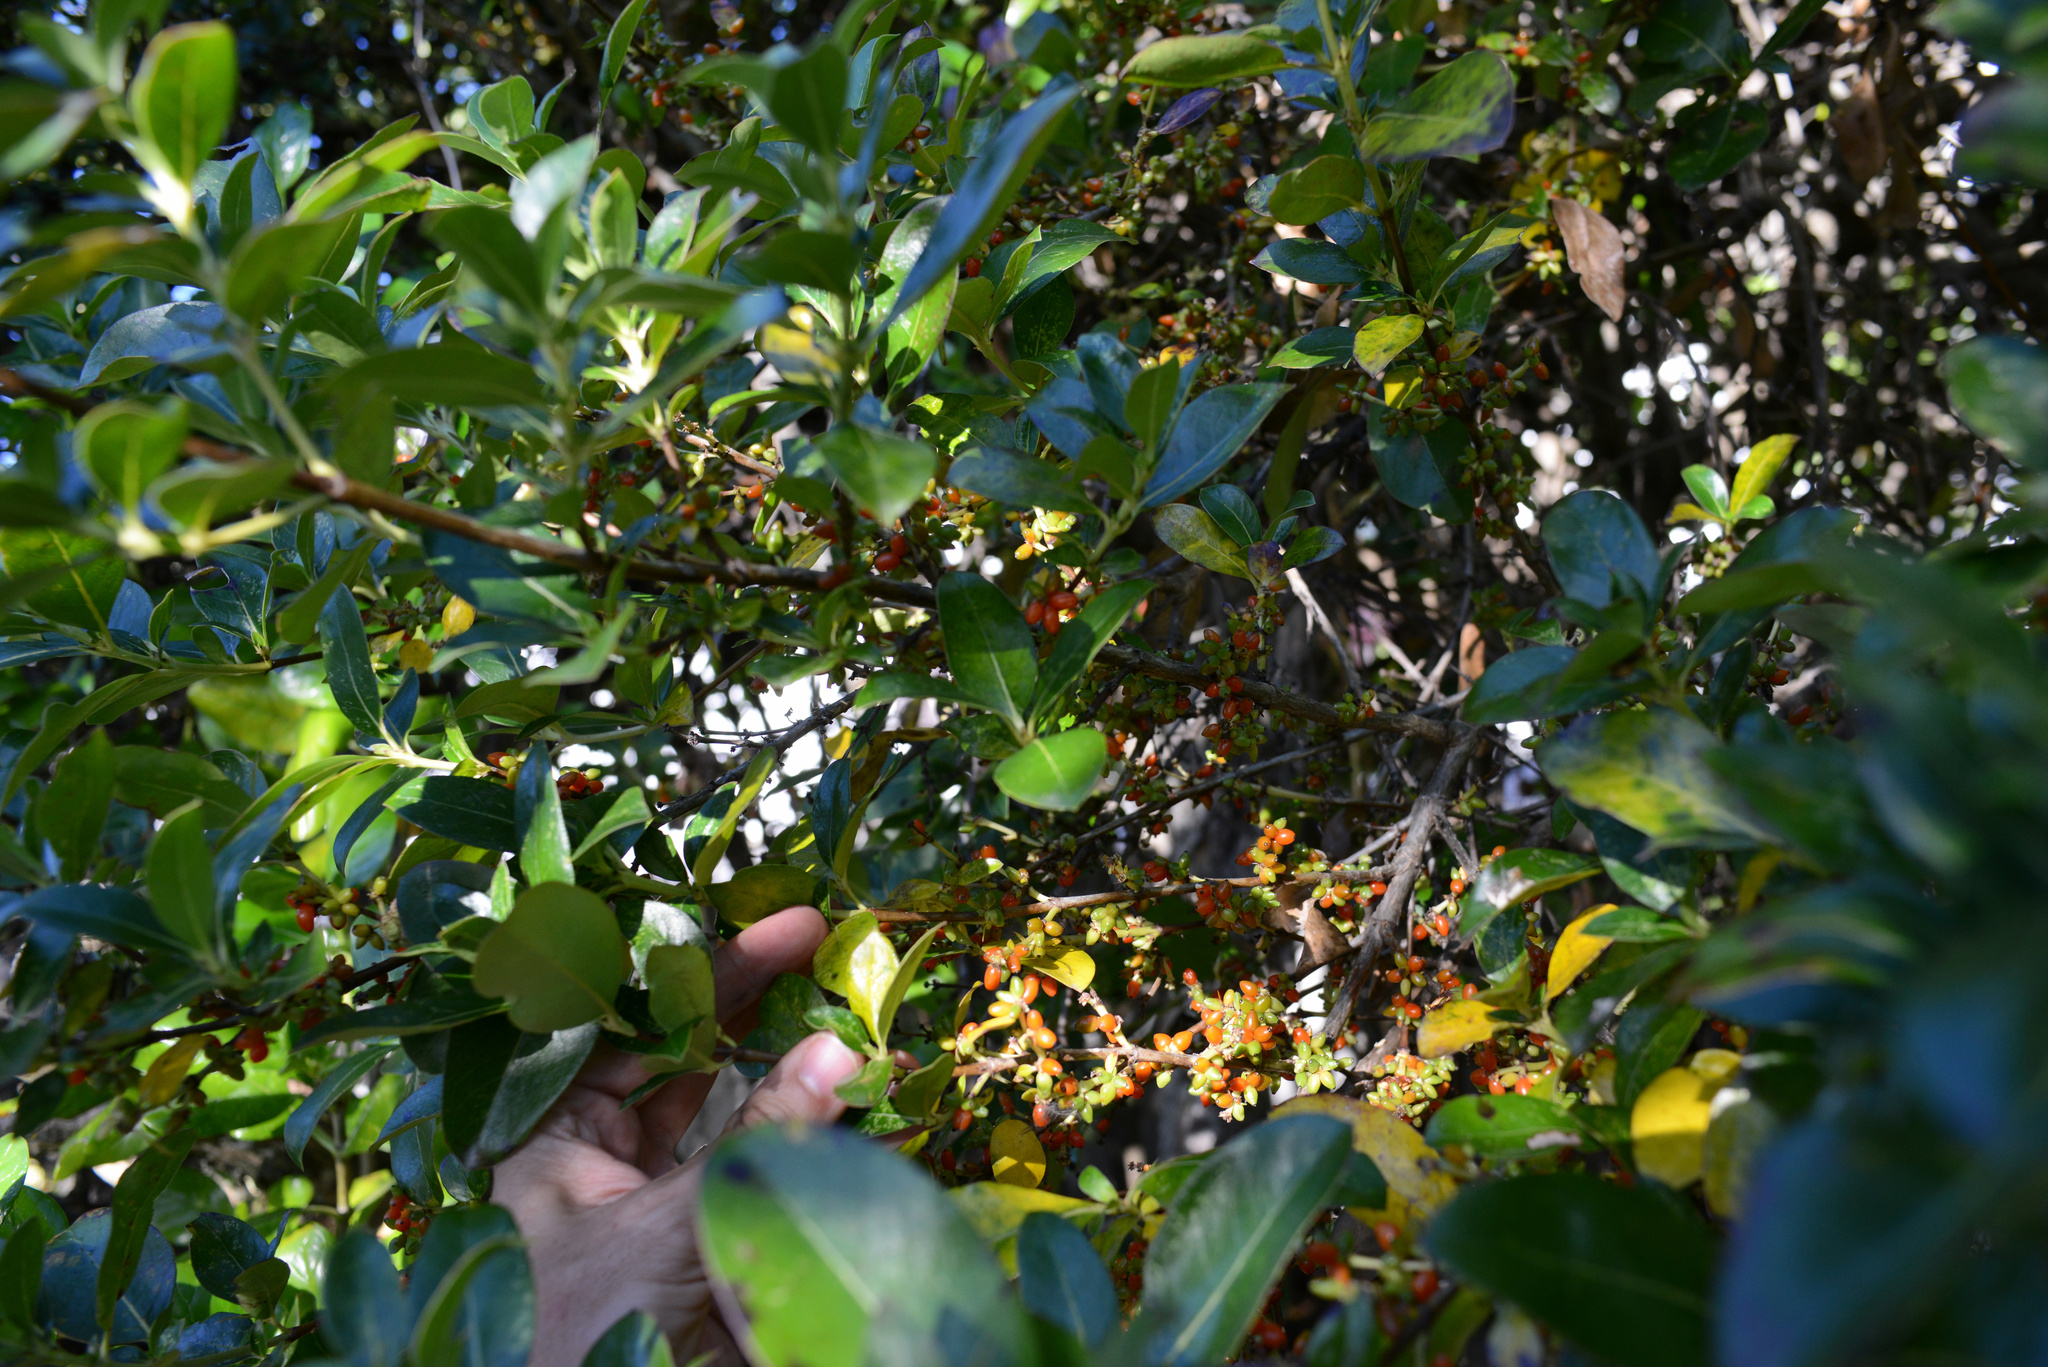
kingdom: Plantae
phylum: Tracheophyta
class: Magnoliopsida
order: Gentianales
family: Rubiaceae
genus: Coprosma
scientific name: Coprosma robusta
